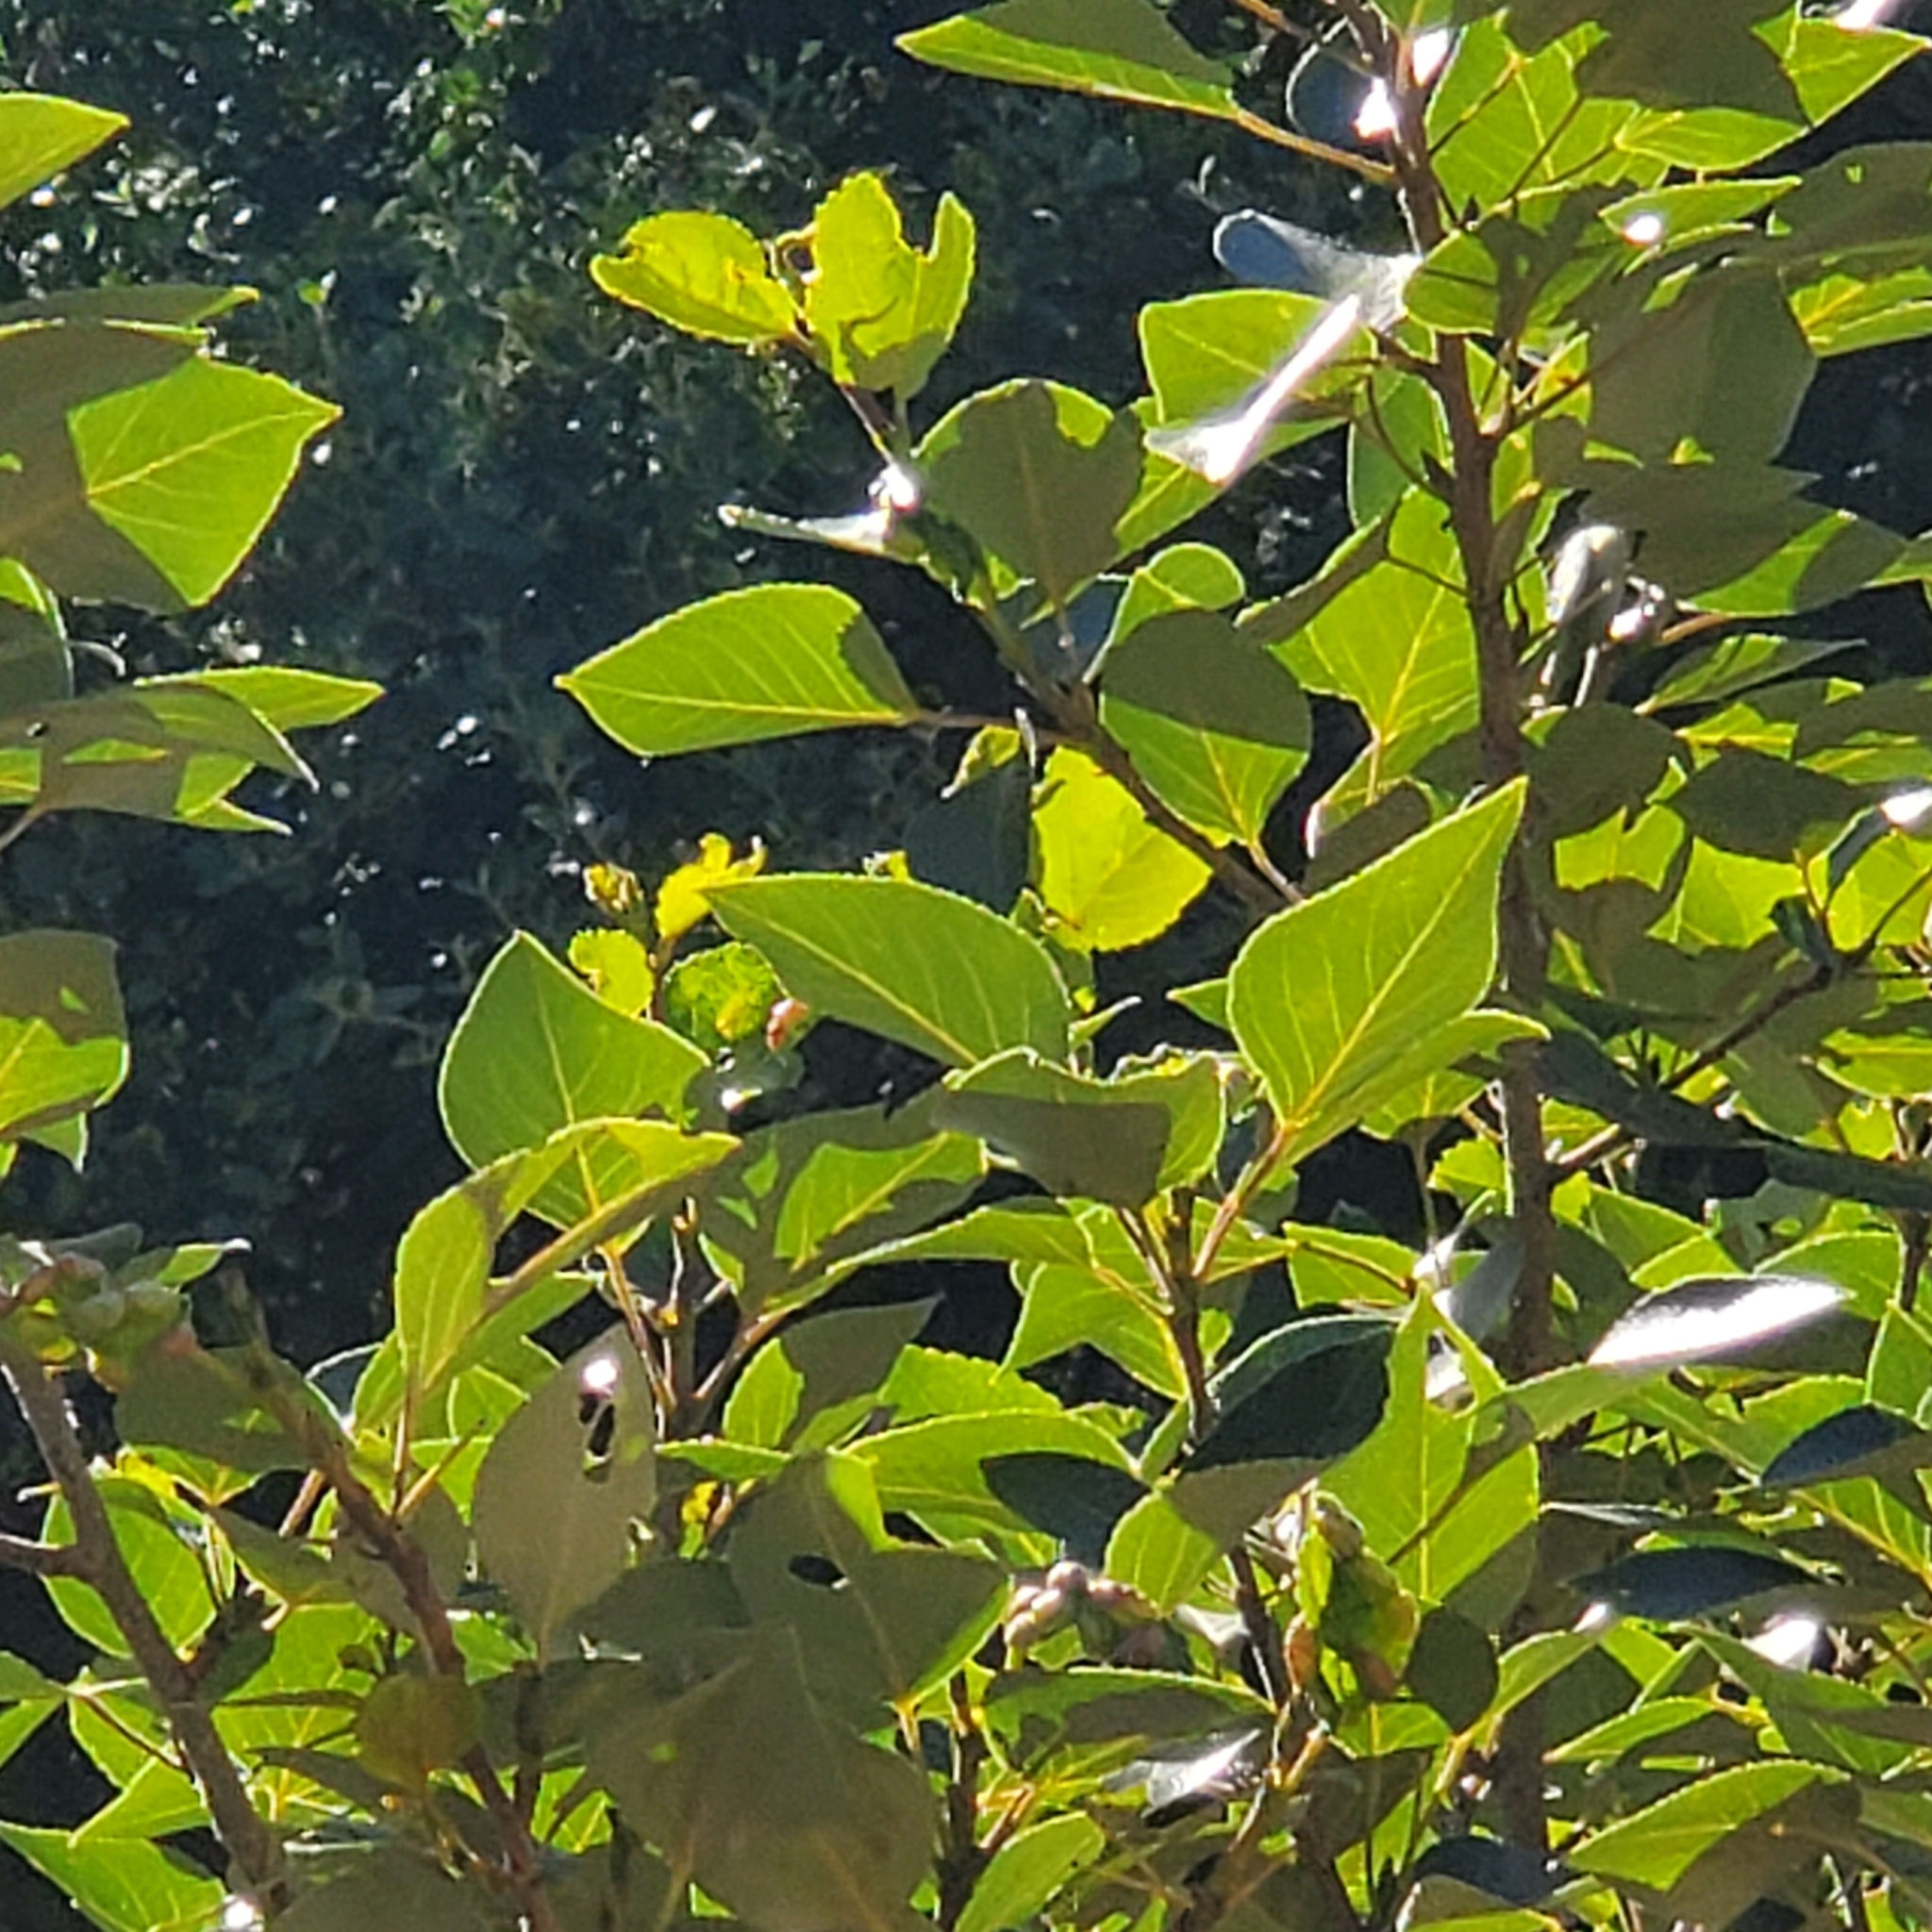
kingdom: Plantae
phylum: Tracheophyta
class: Magnoliopsida
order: Malpighiales
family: Salicaceae
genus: Populus
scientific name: Populus trichocarpa
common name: Black cottonwood
